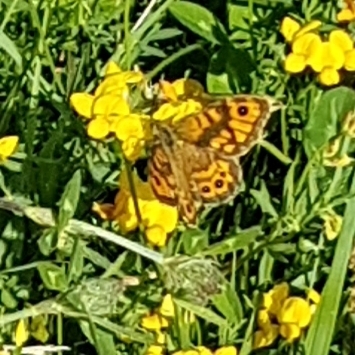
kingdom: Animalia
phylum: Arthropoda
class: Insecta
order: Lepidoptera
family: Nymphalidae
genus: Pararge
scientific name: Pararge Lasiommata megera
